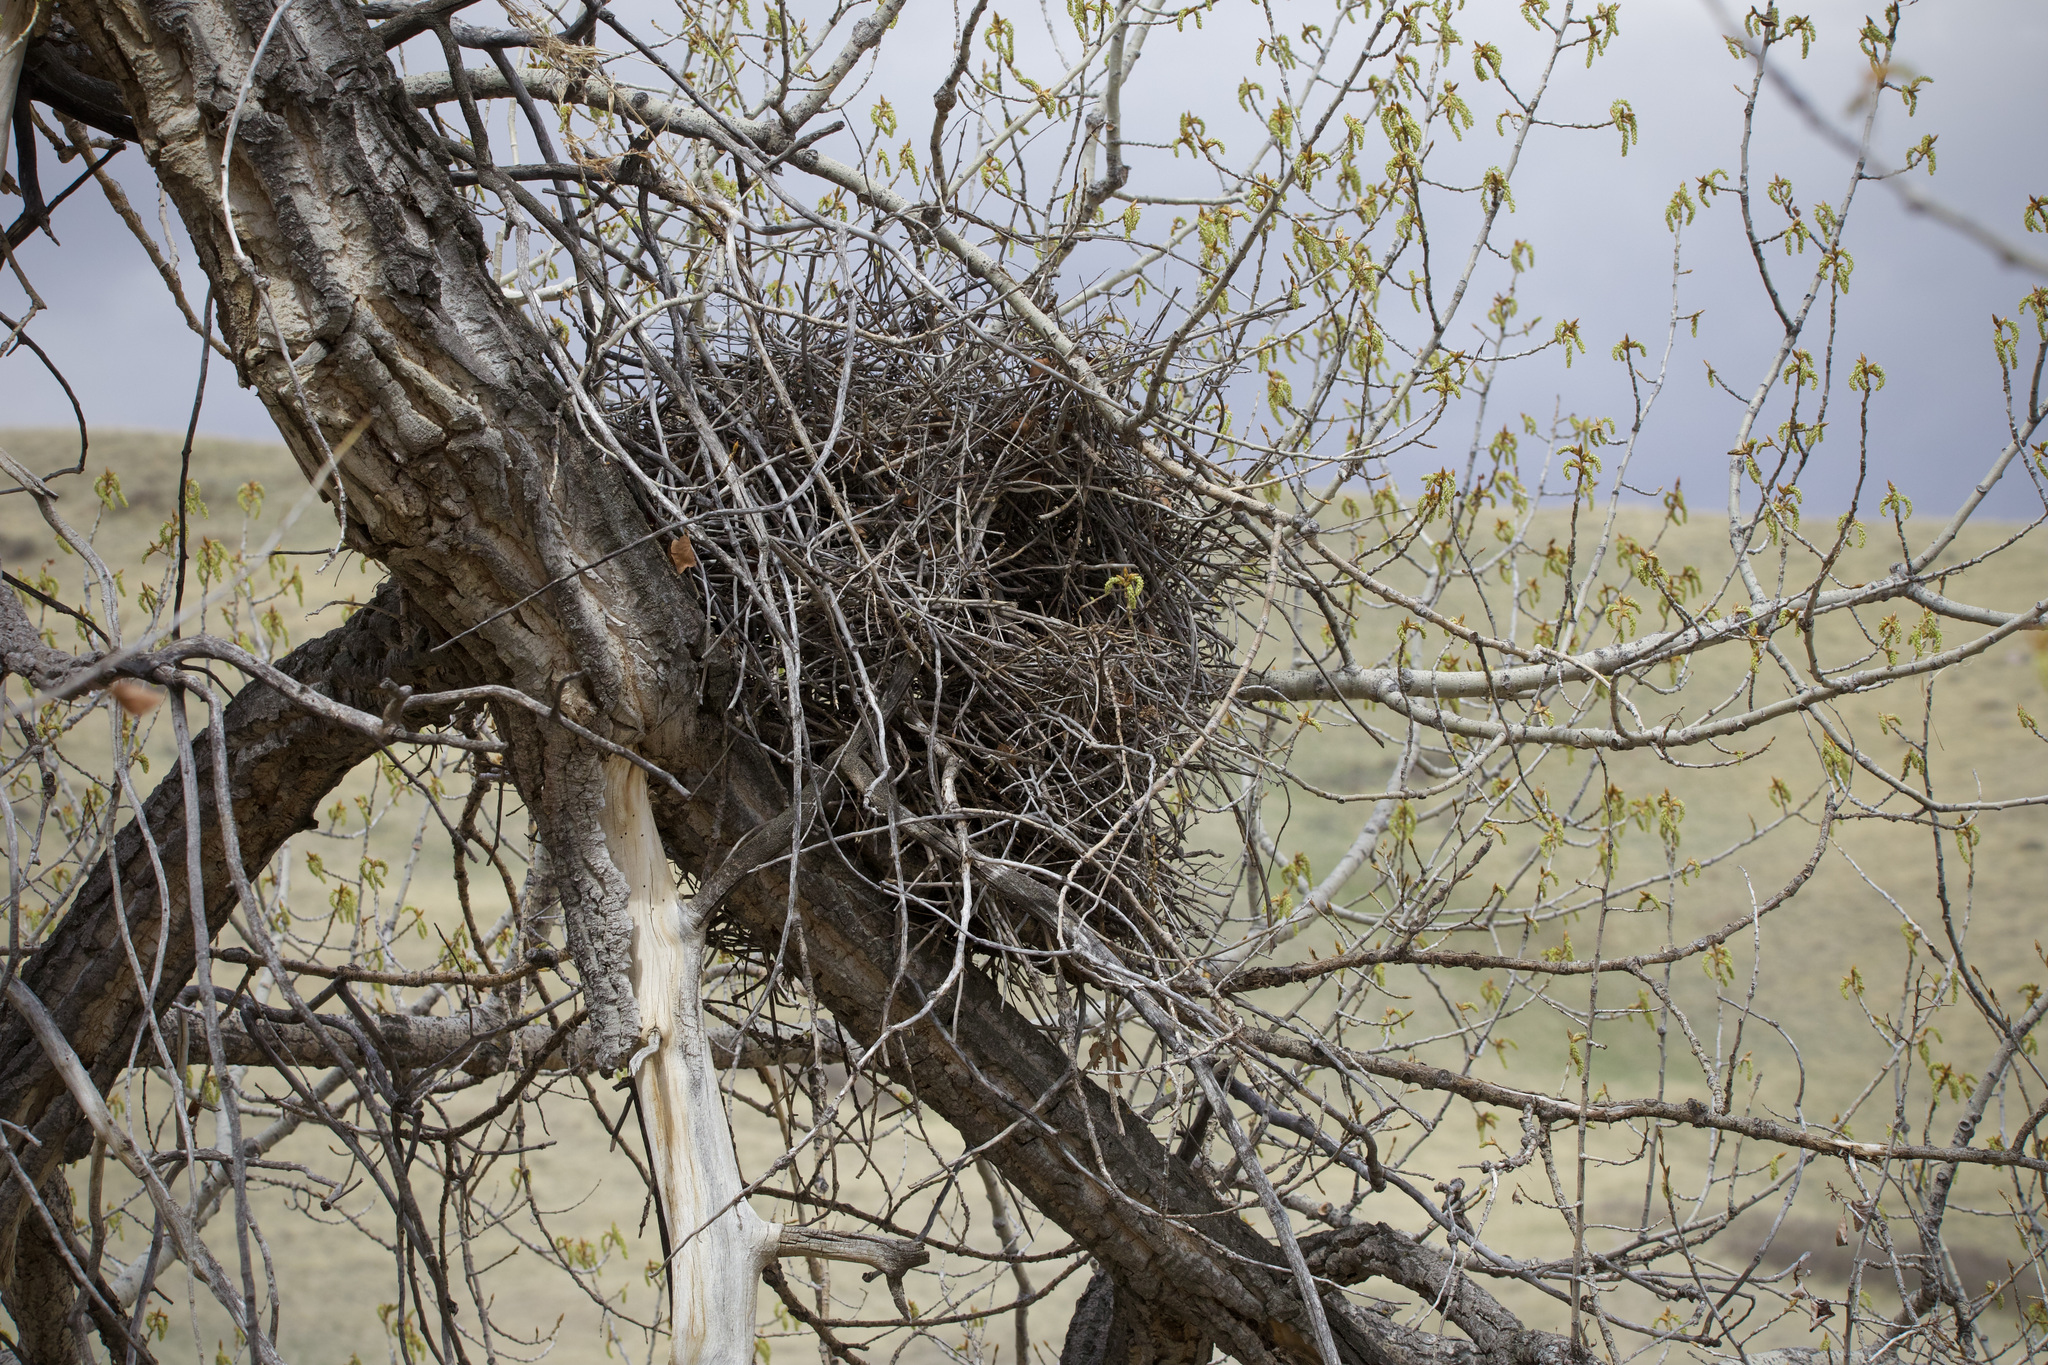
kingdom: Animalia
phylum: Chordata
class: Aves
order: Passeriformes
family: Corvidae
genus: Pica
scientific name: Pica hudsonia
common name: Black-billed magpie
